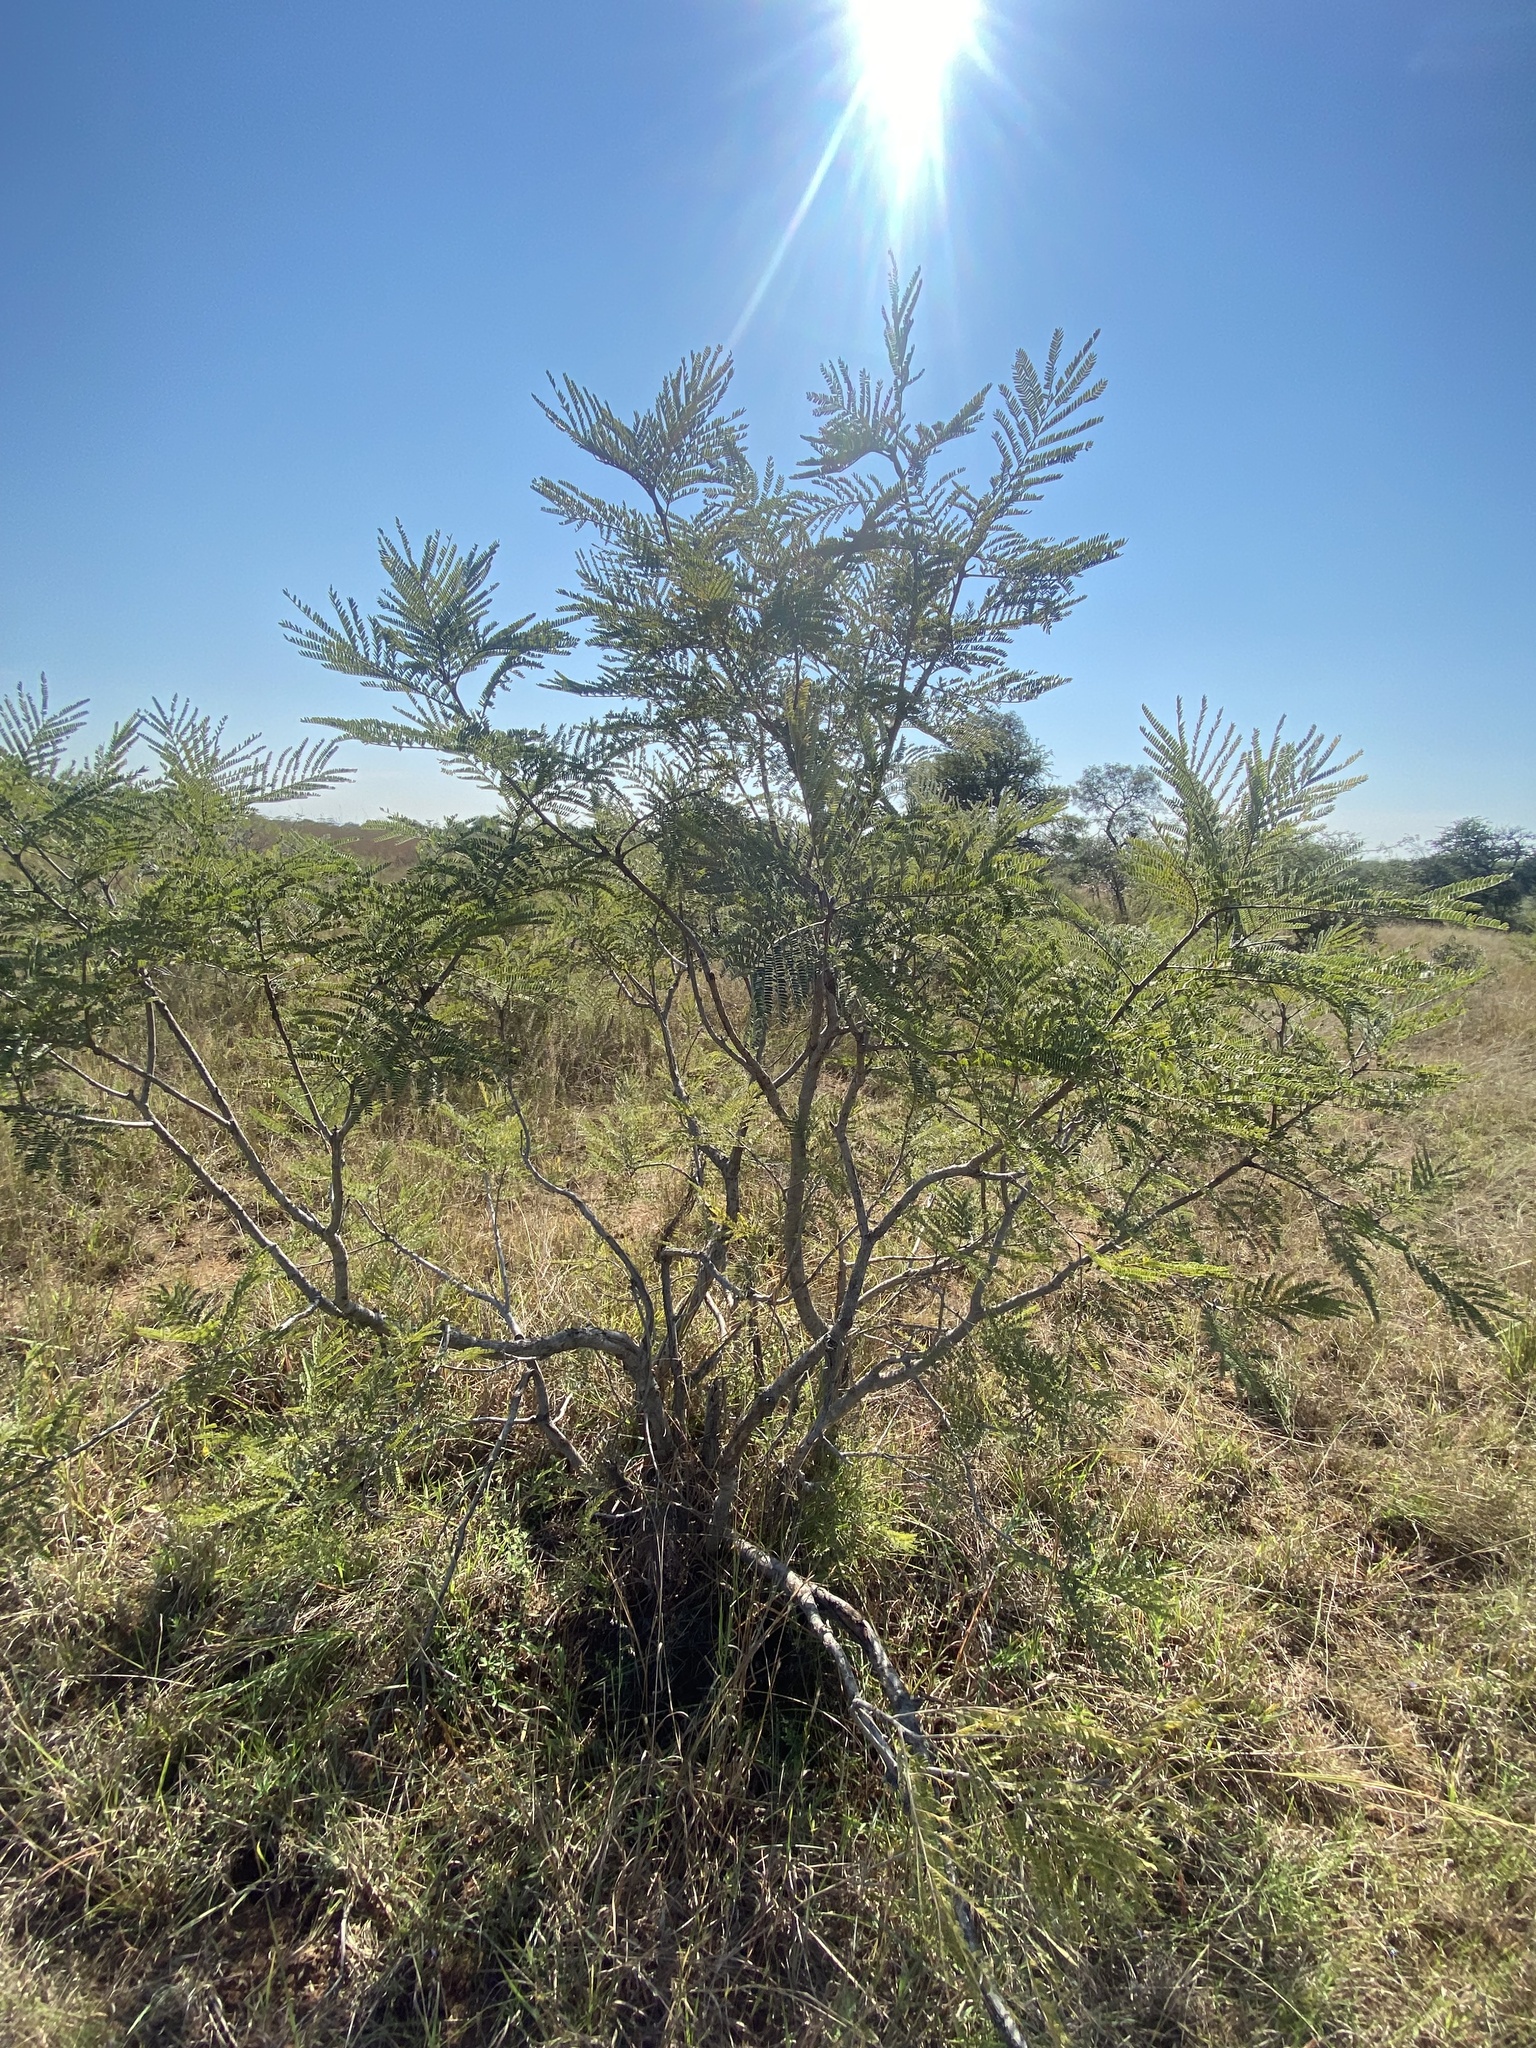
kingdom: Plantae
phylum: Tracheophyta
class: Magnoliopsida
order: Fabales
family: Fabaceae
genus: Peltophorum
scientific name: Peltophorum africanum
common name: African black wattle
